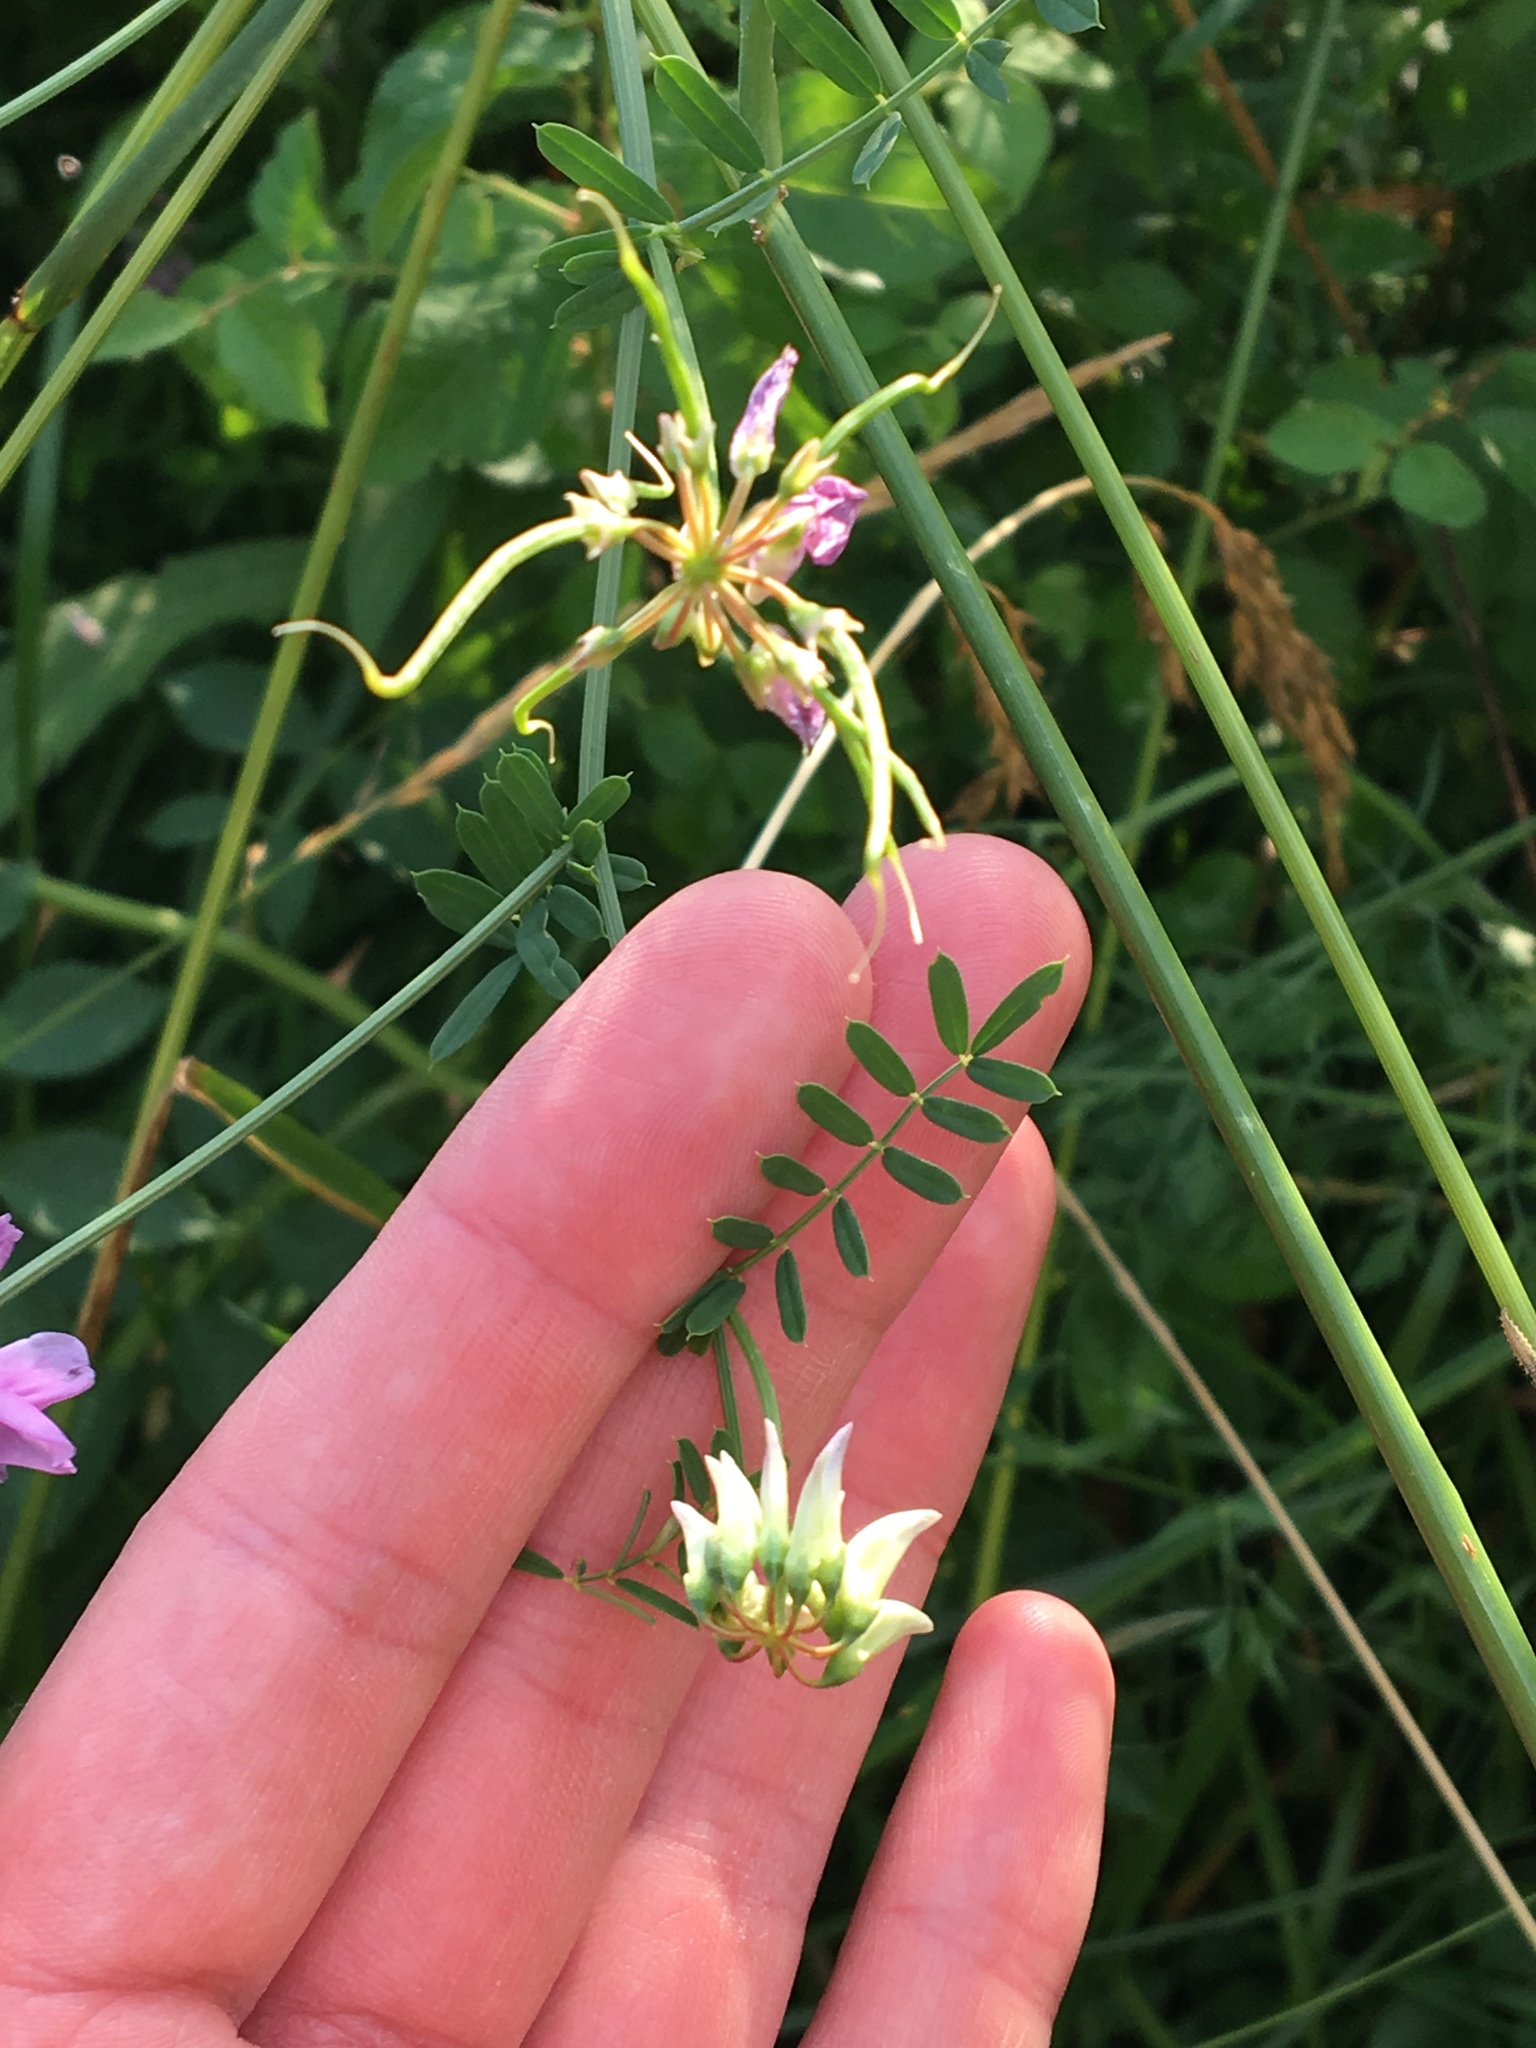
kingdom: Plantae
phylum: Tracheophyta
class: Magnoliopsida
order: Fabales
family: Fabaceae
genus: Coronilla
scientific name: Coronilla varia
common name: Crownvetch
